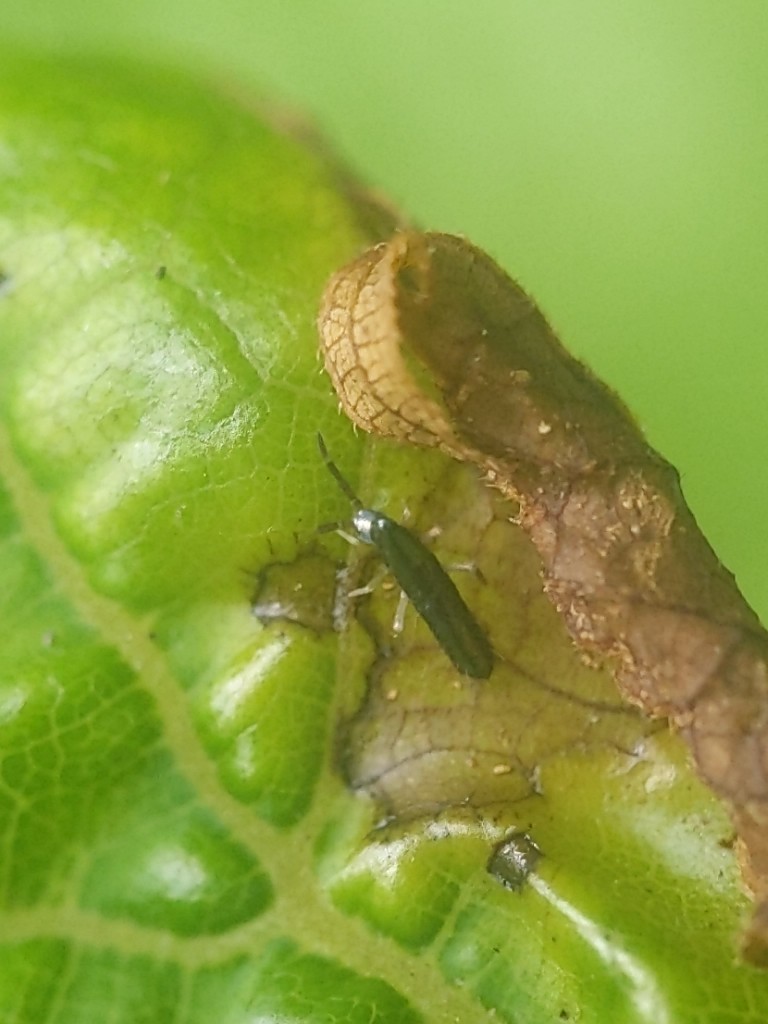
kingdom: Animalia
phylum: Arthropoda
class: Collembola
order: Entomobryomorpha
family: Entomobryidae
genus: Lepidocyrtus
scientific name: Lepidocyrtus paradoxus
